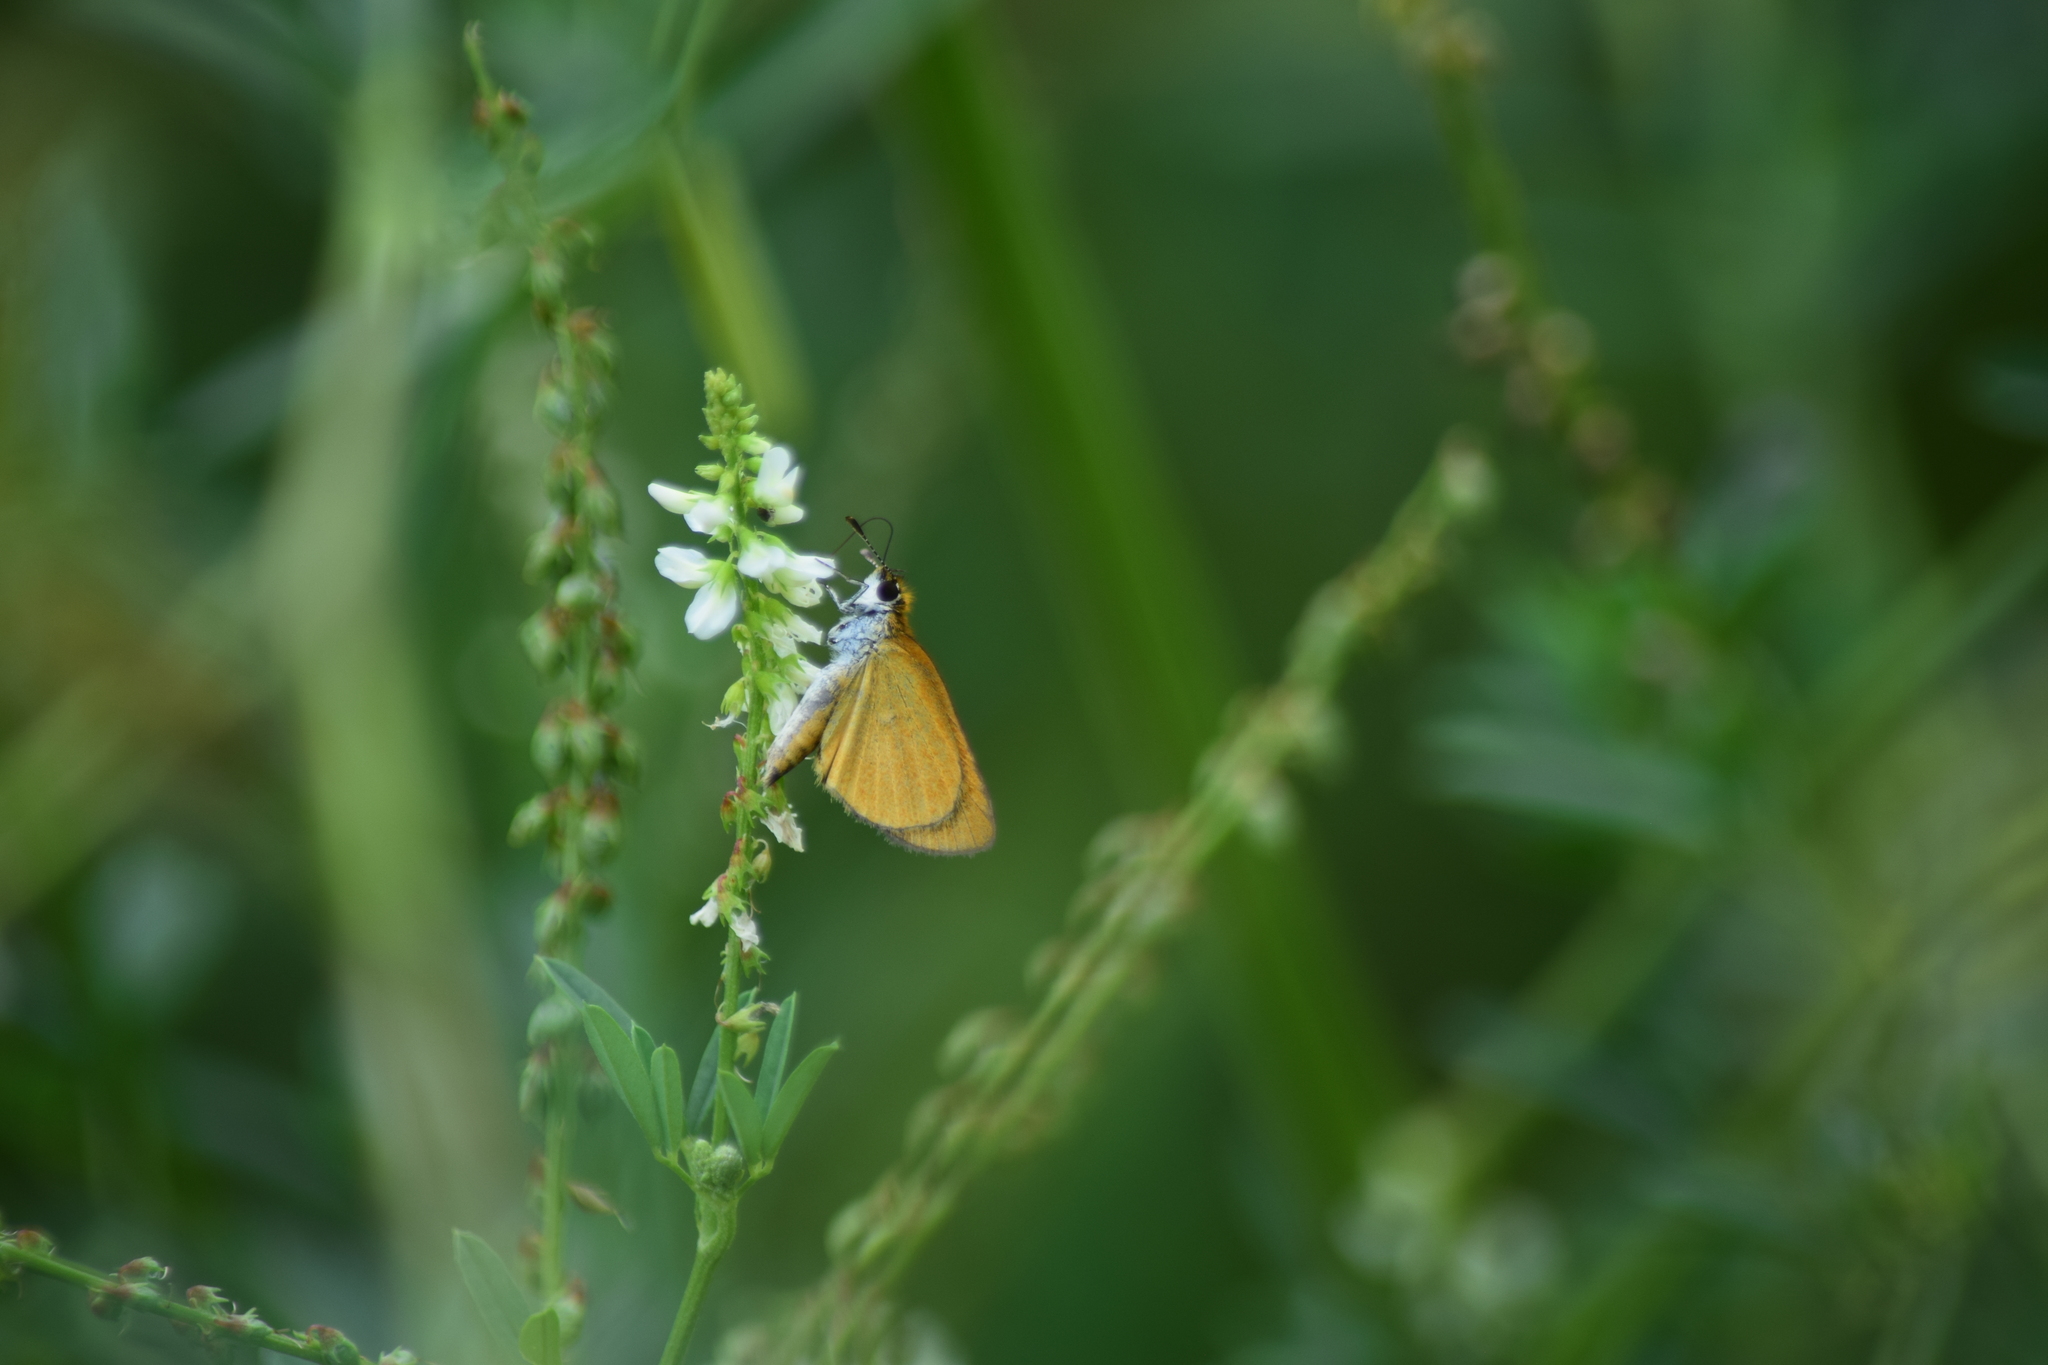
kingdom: Animalia
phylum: Arthropoda
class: Insecta
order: Lepidoptera
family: Hesperiidae
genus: Ancyloxypha
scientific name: Ancyloxypha numitor
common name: Least skipper
